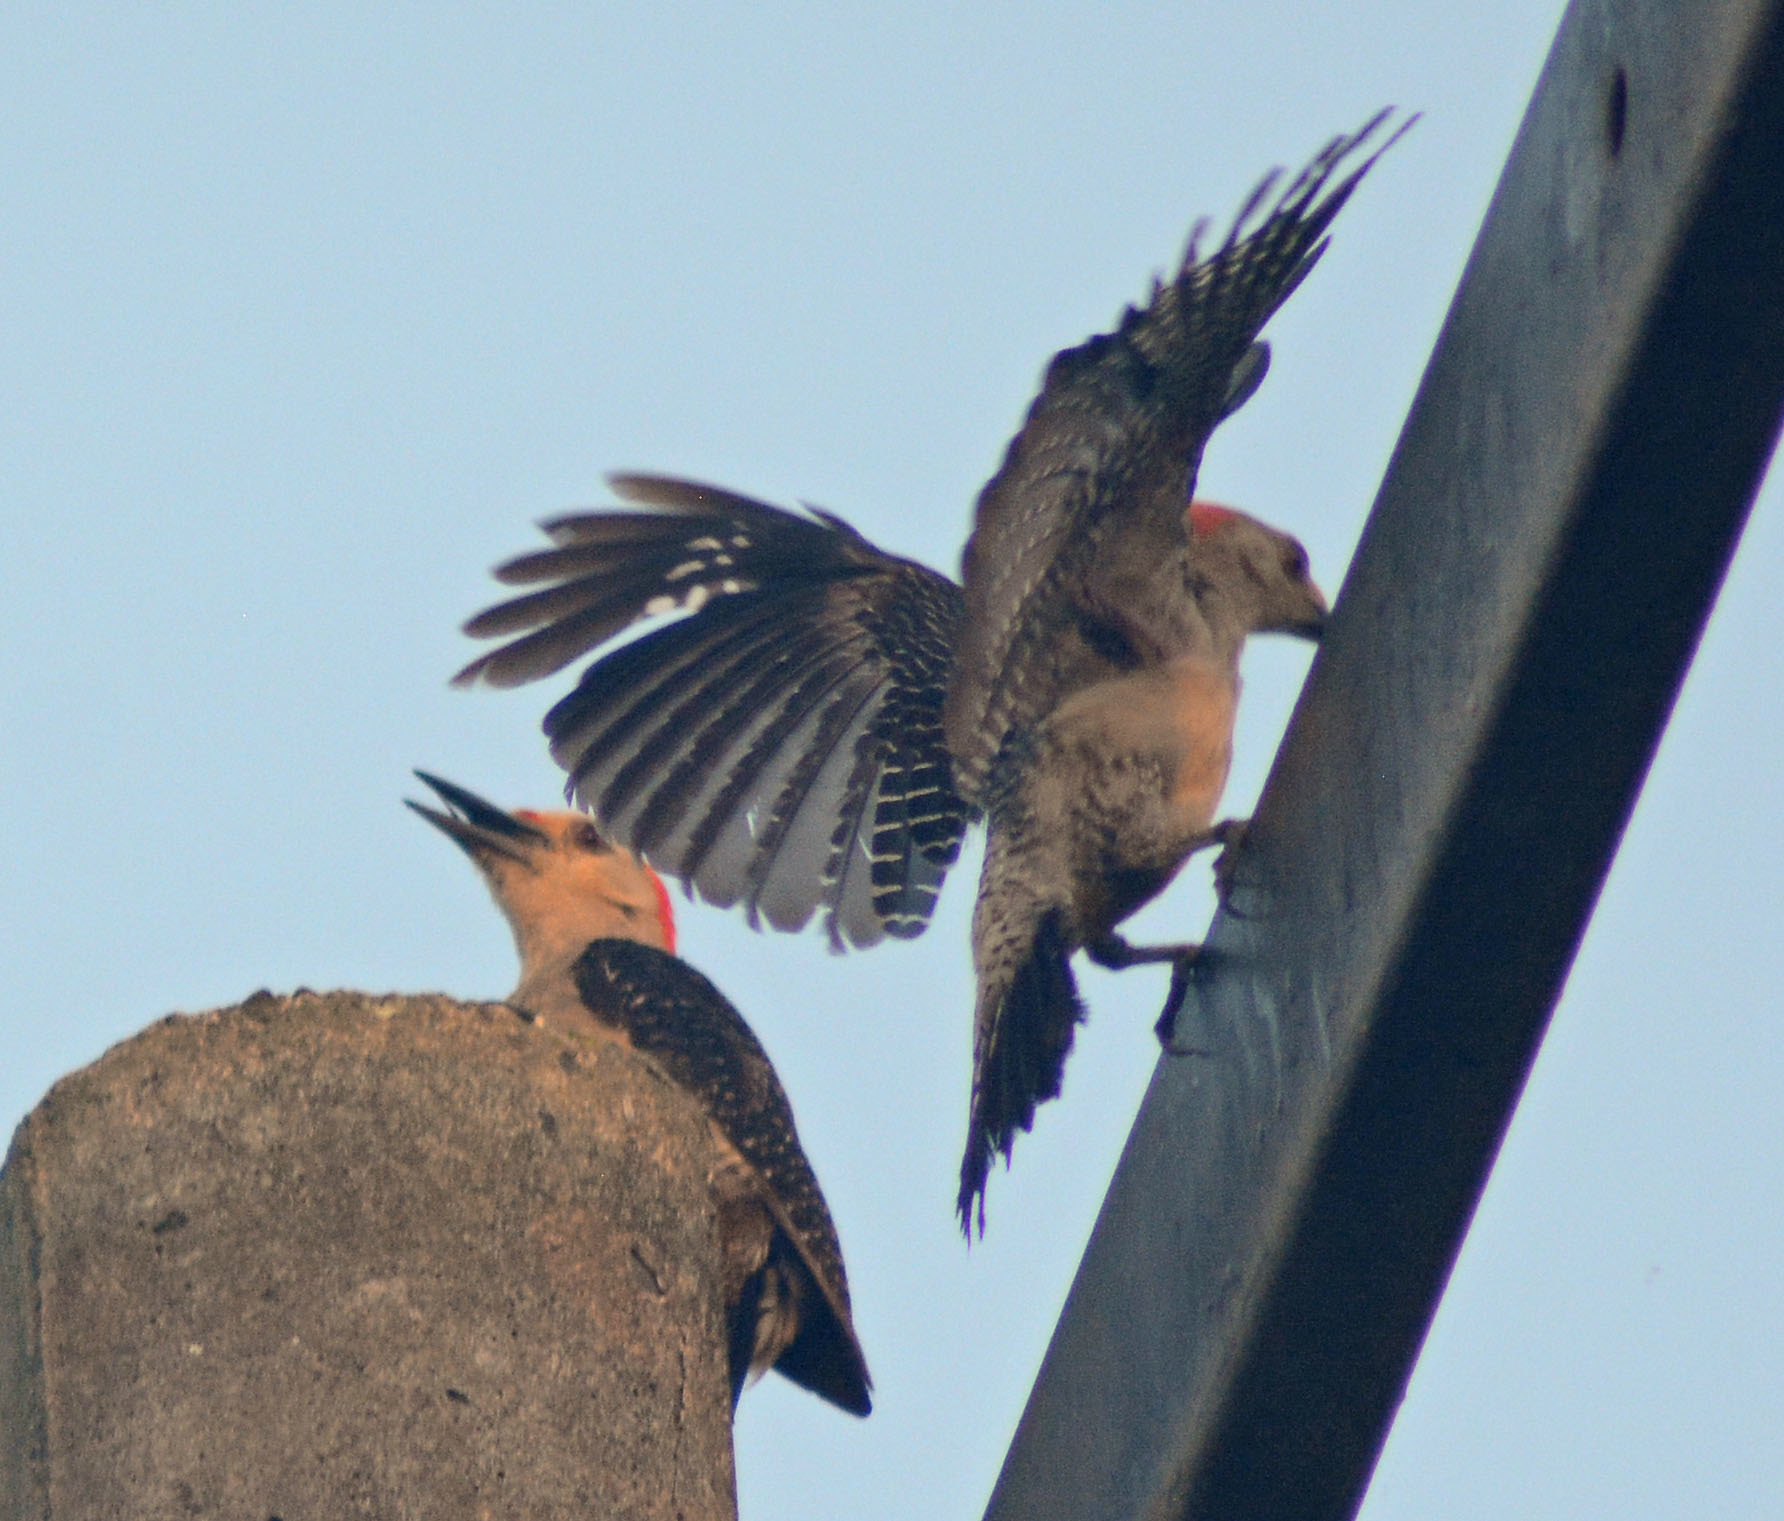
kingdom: Animalia
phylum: Chordata
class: Aves
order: Piciformes
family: Picidae
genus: Melanerpes
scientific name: Melanerpes aurifrons
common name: Golden-fronted woodpecker
